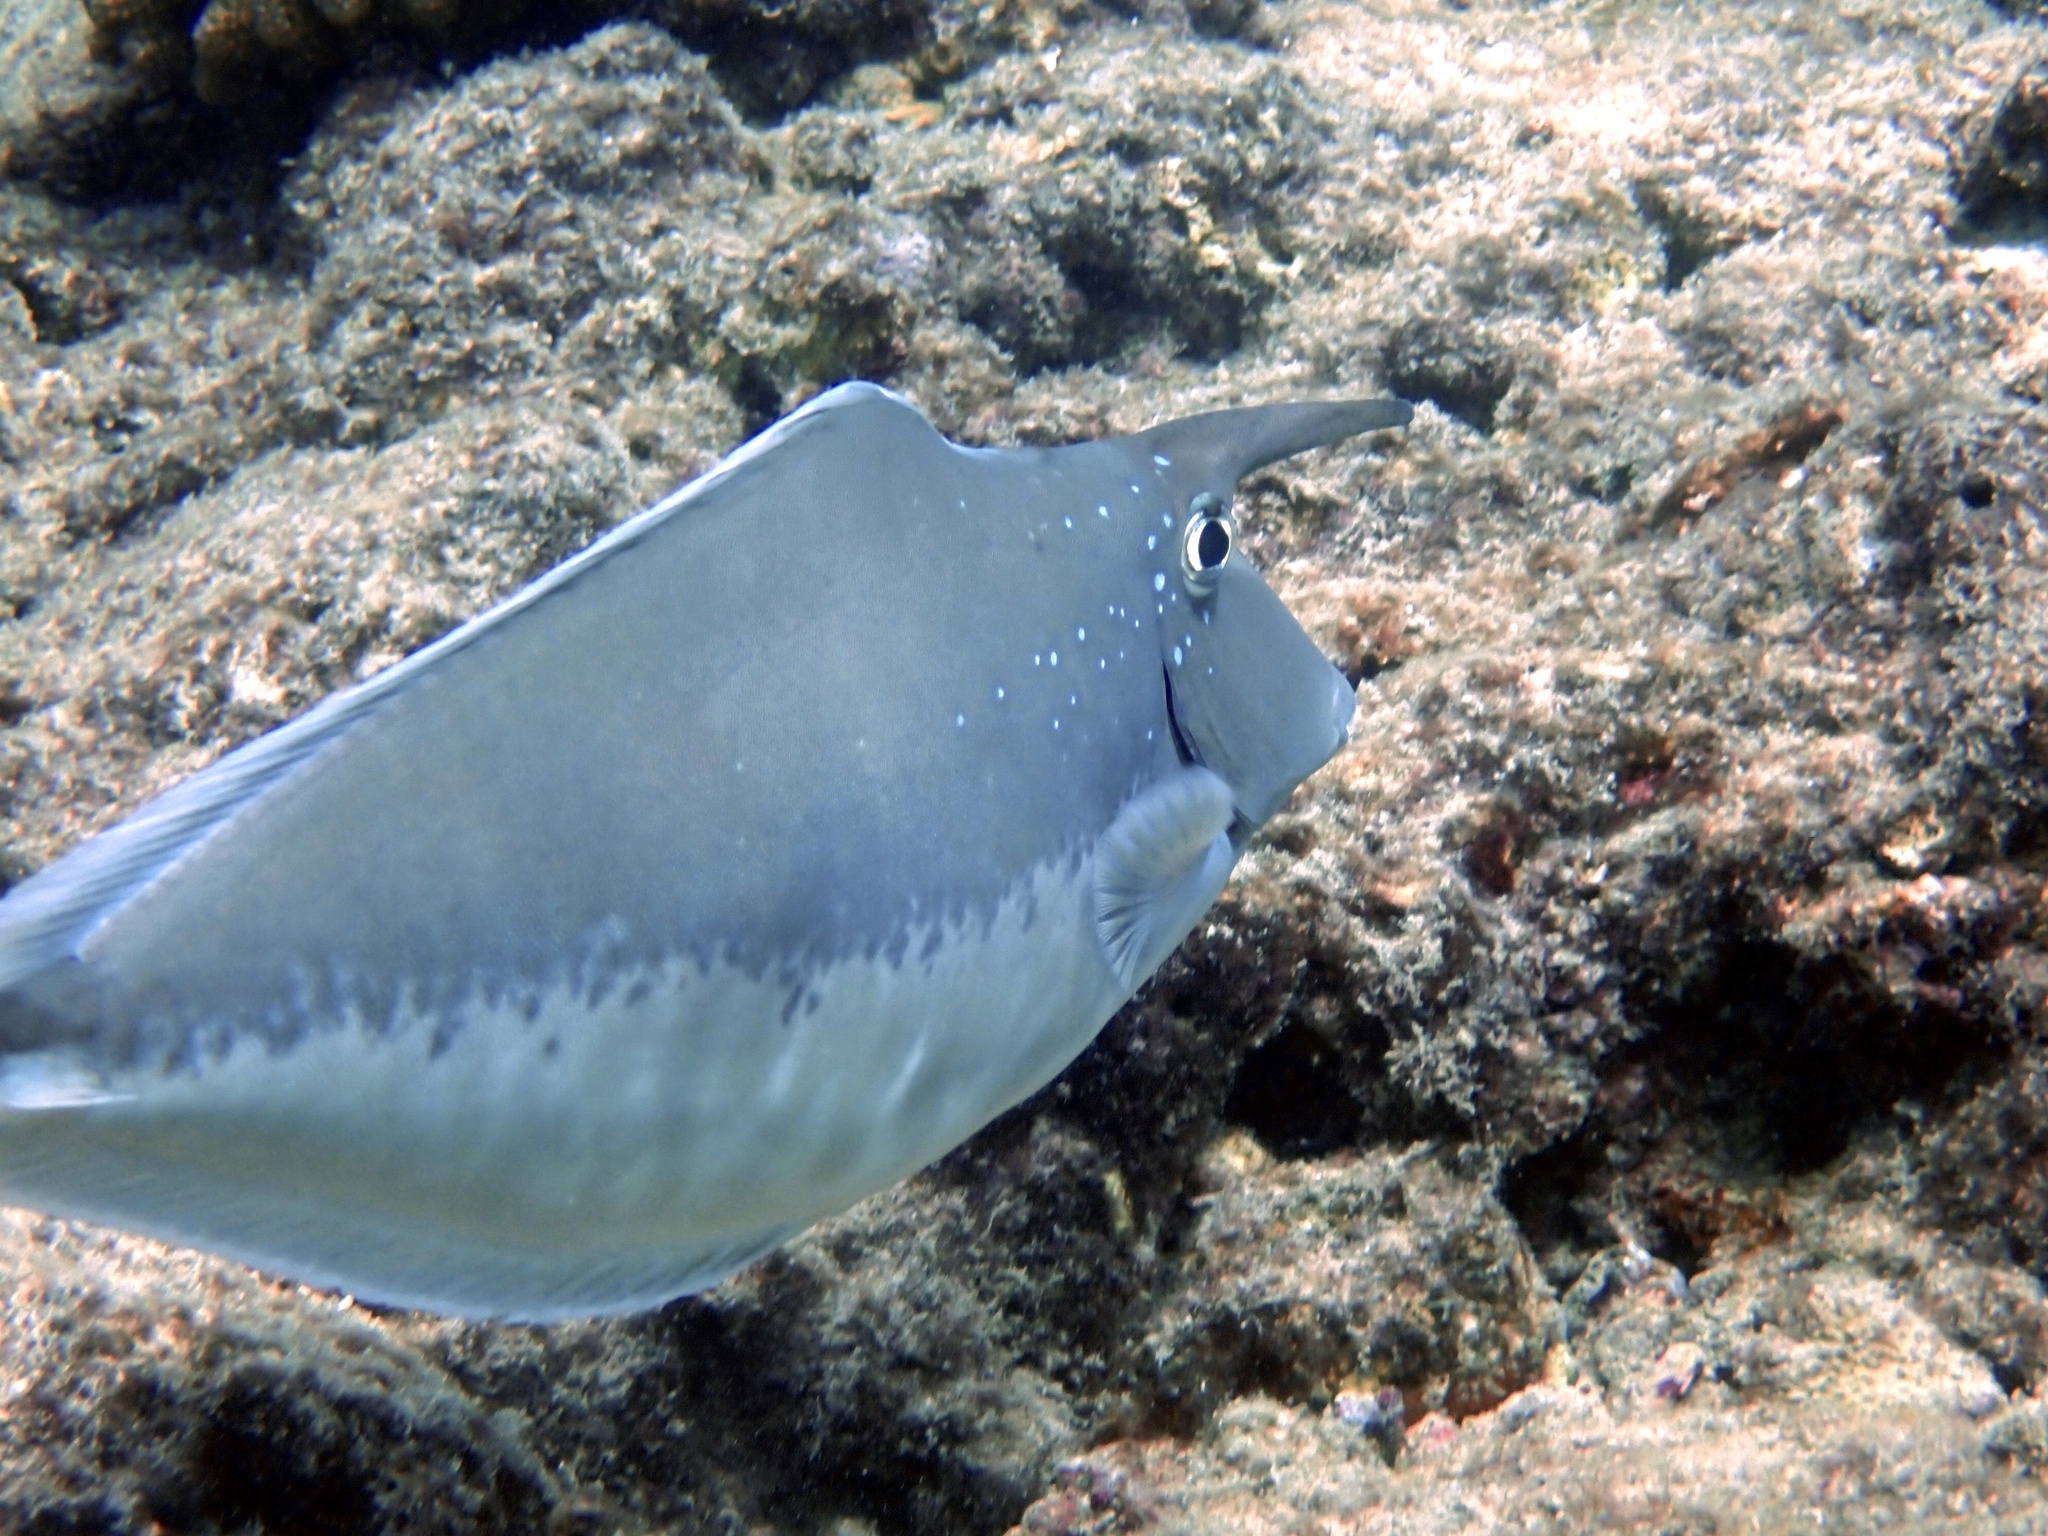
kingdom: Animalia
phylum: Chordata
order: Perciformes
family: Acanthuridae
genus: Naso
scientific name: Naso brachycentron
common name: Humpback unicornfish
